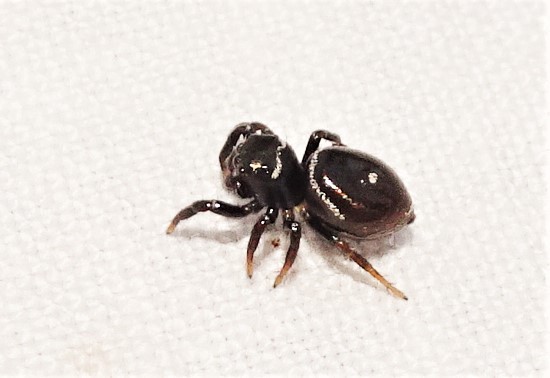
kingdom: Animalia
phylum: Arthropoda
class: Arachnida
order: Araneae
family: Salticidae
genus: Zenodorus
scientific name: Zenodorus orbiculatus
